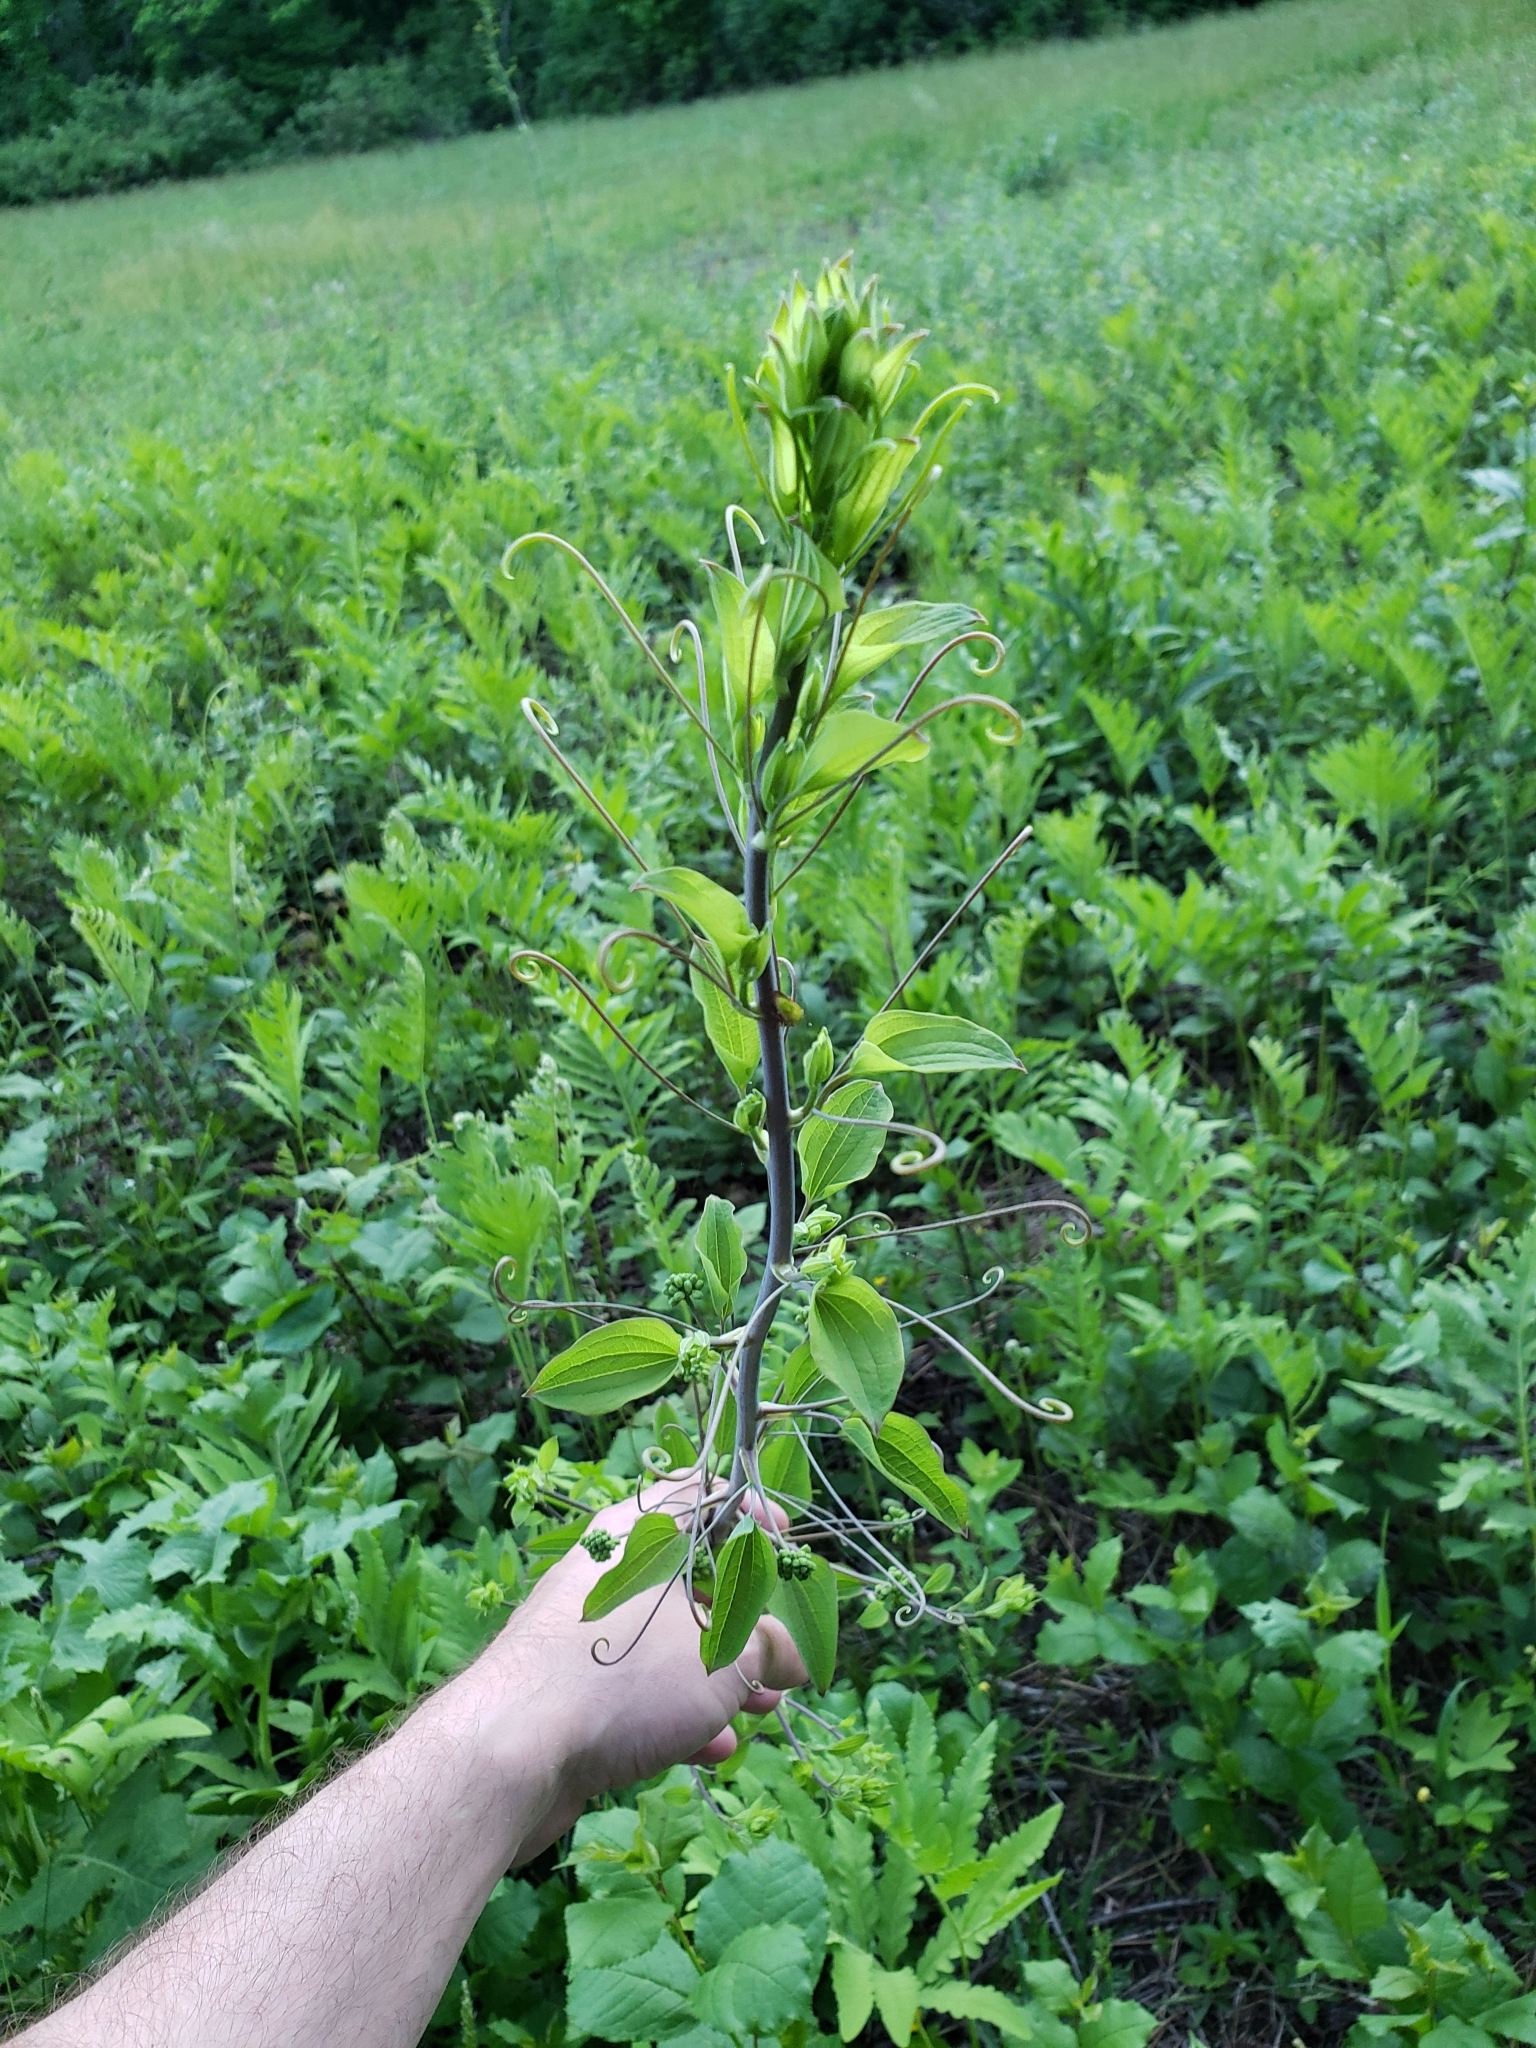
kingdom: Plantae
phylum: Tracheophyta
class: Liliopsida
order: Liliales
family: Smilacaceae
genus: Smilax
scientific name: Smilax herbacea
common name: Jacob's-ladder
